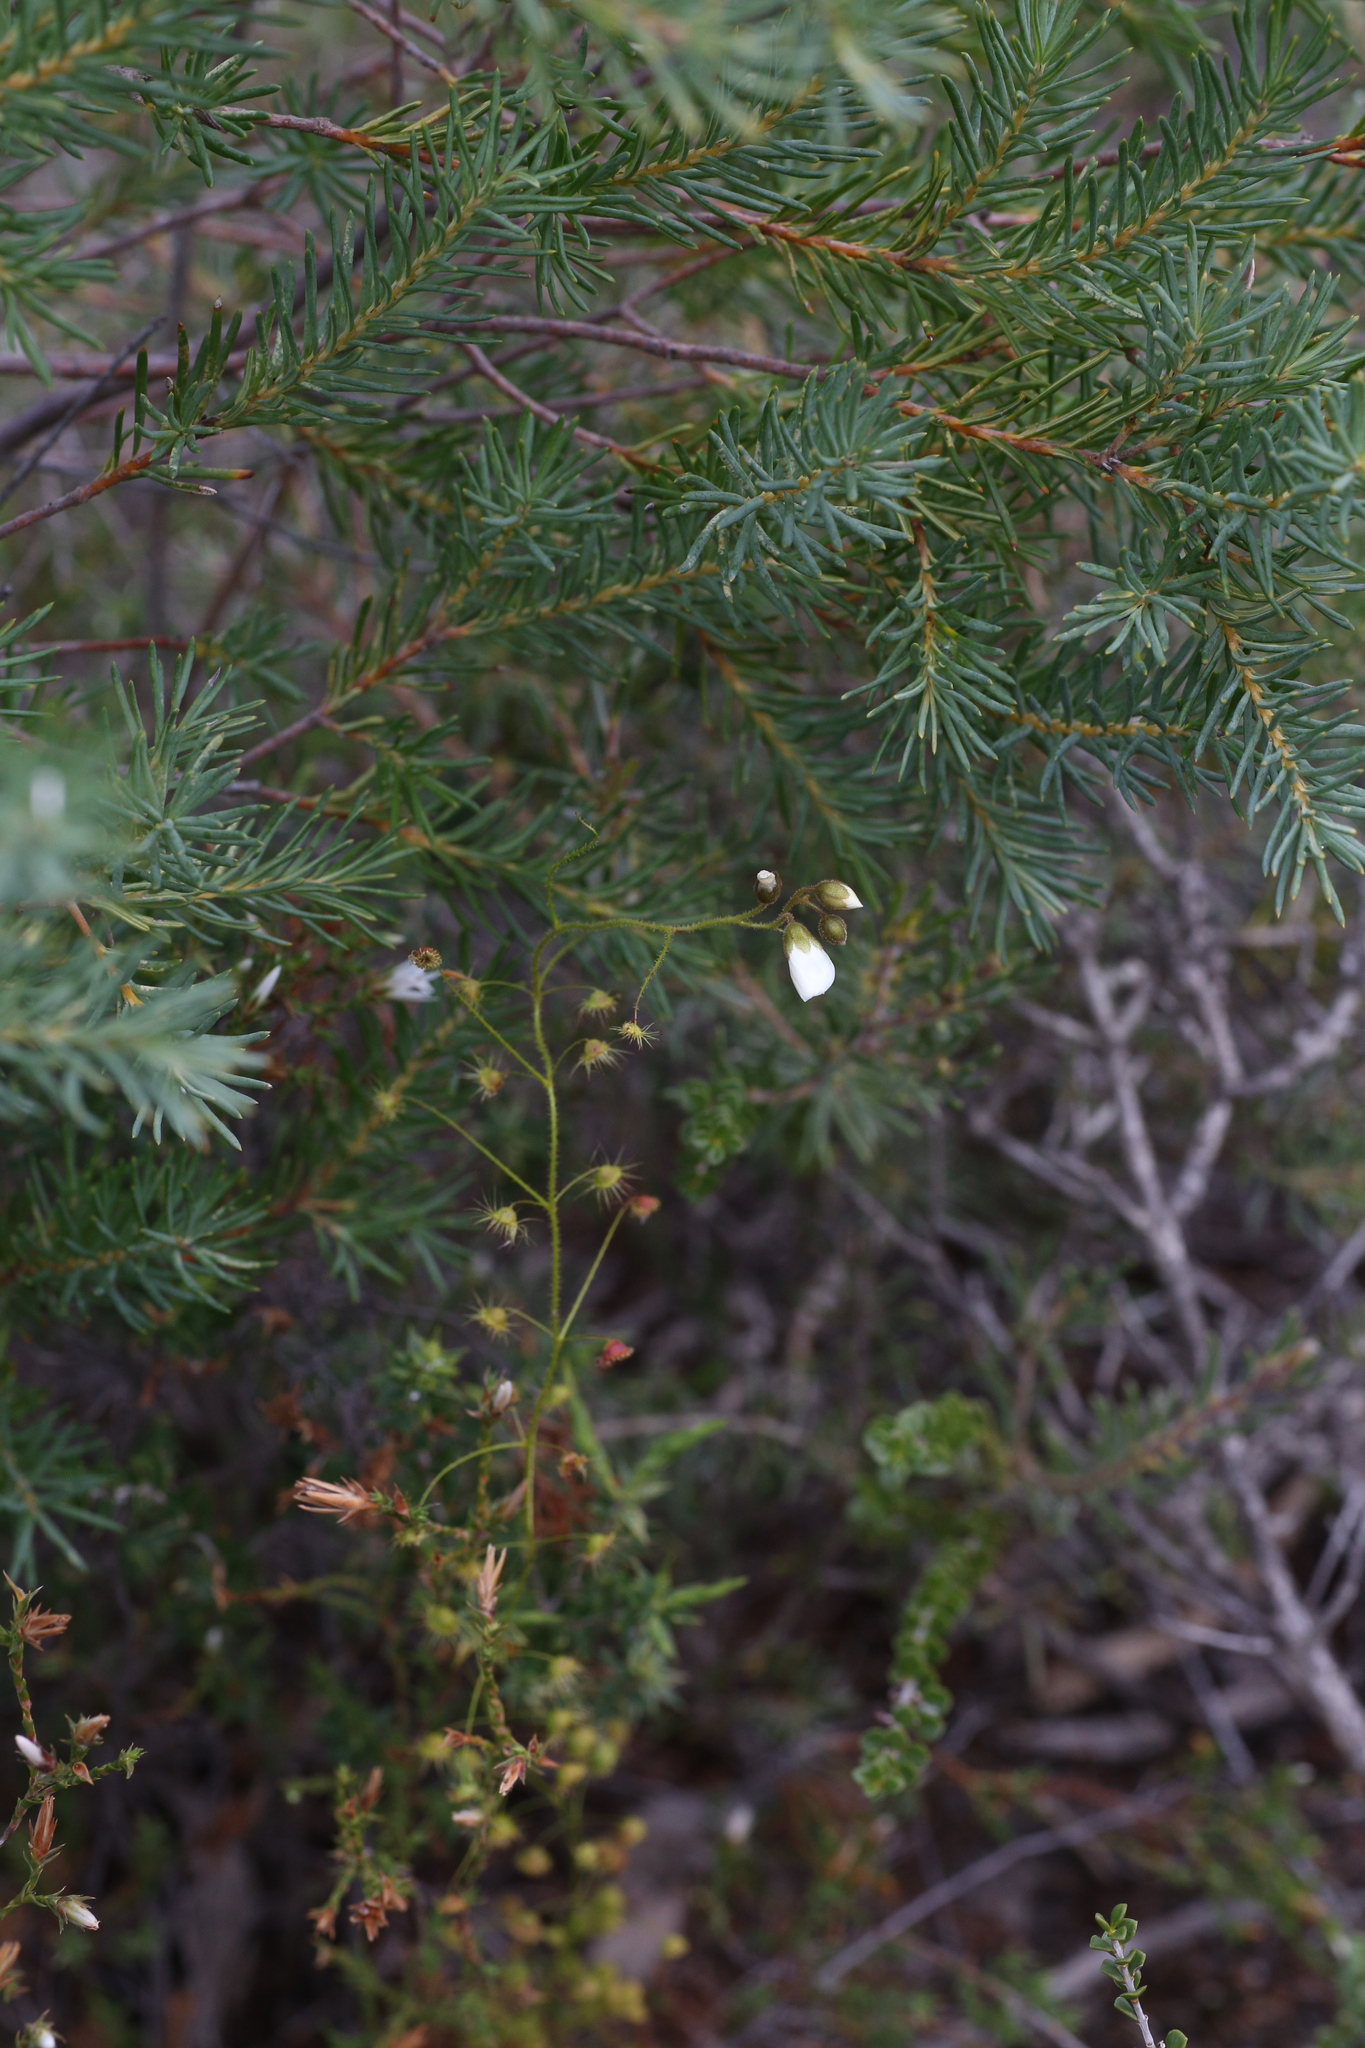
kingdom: Plantae
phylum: Tracheophyta
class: Magnoliopsida
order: Caryophyllales
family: Droseraceae
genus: Drosera
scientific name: Drosera macrantha
